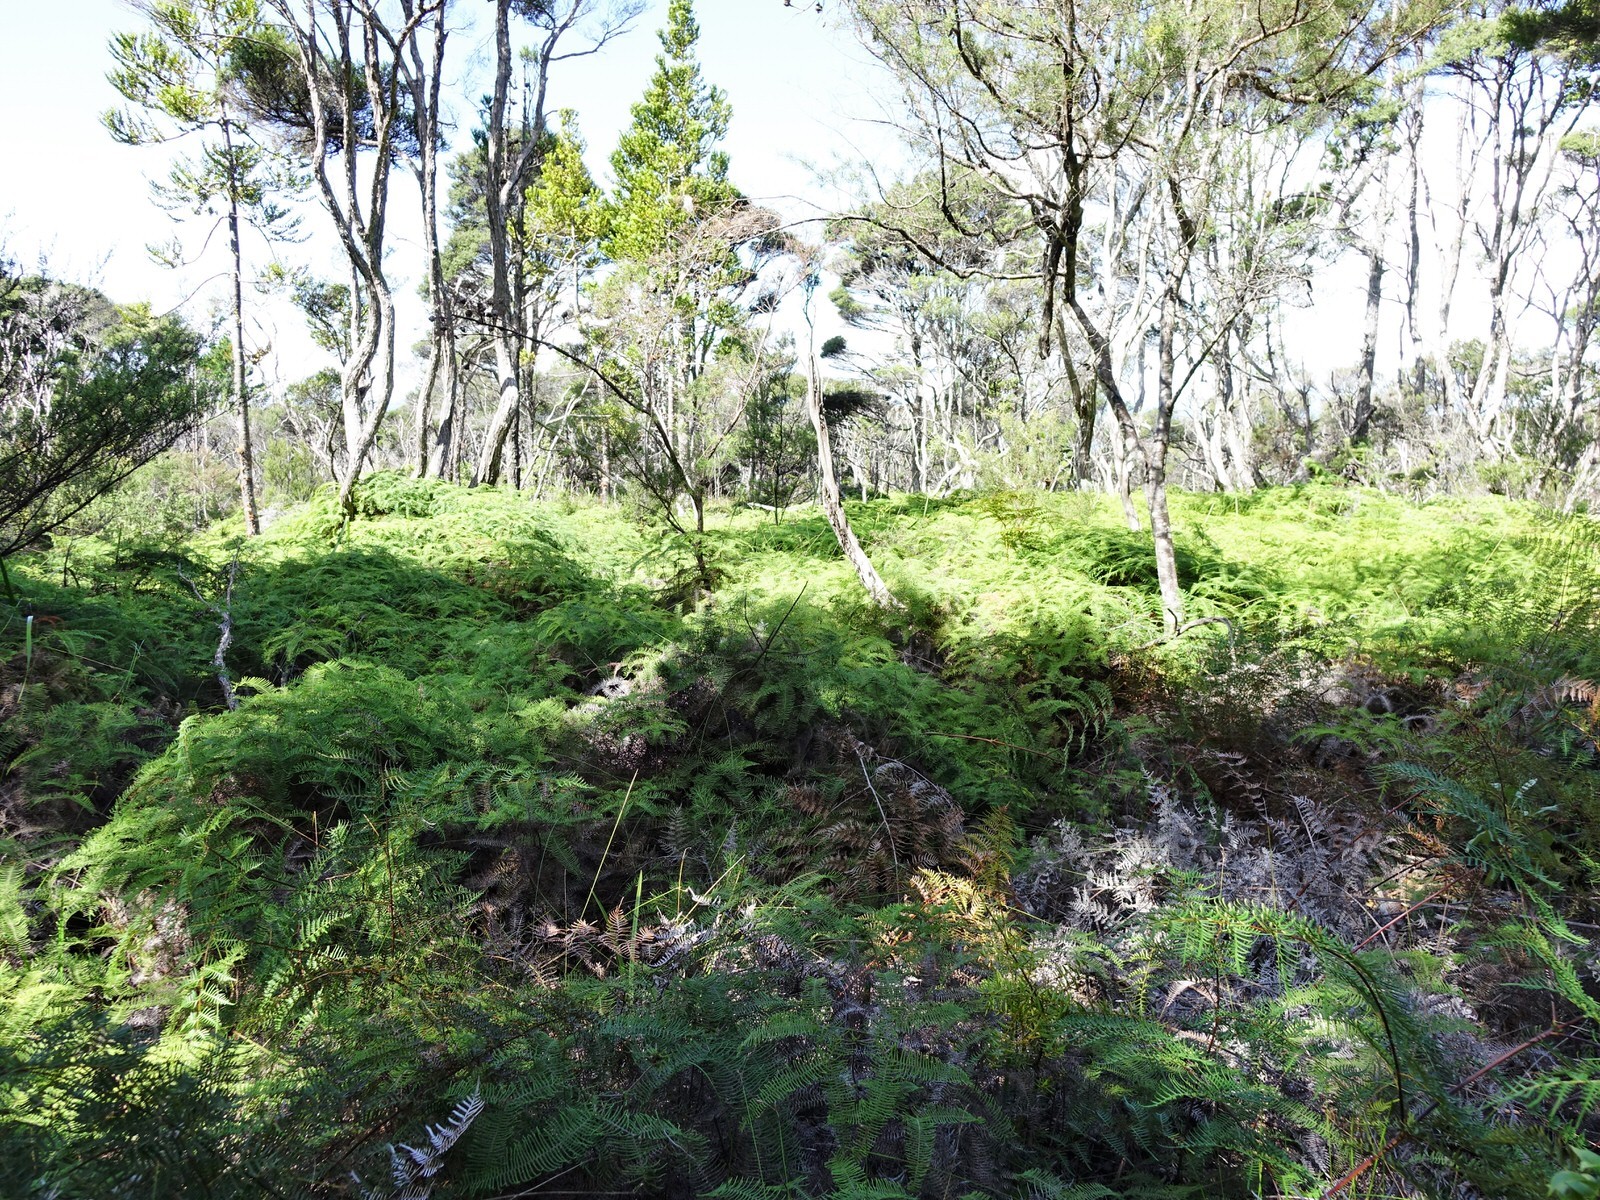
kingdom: Plantae
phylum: Tracheophyta
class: Polypodiopsida
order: Gleicheniales
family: Gleicheniaceae
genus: Gleichenia
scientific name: Gleichenia dicarpa
